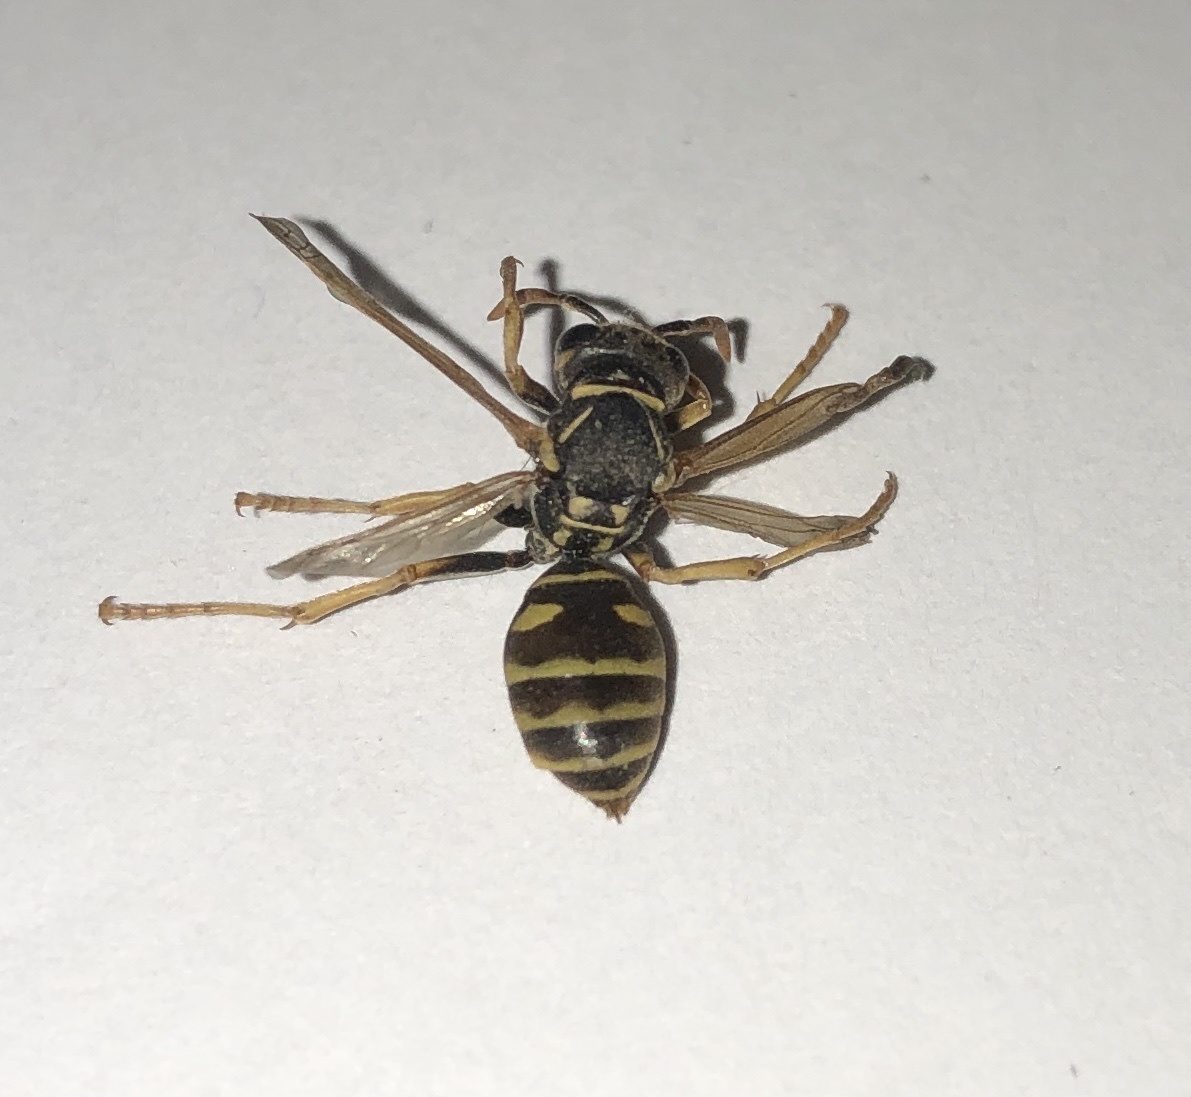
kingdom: Animalia
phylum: Arthropoda
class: Insecta
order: Hymenoptera
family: Eumenidae
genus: Polistes
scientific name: Polistes dominula
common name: Paper wasp
